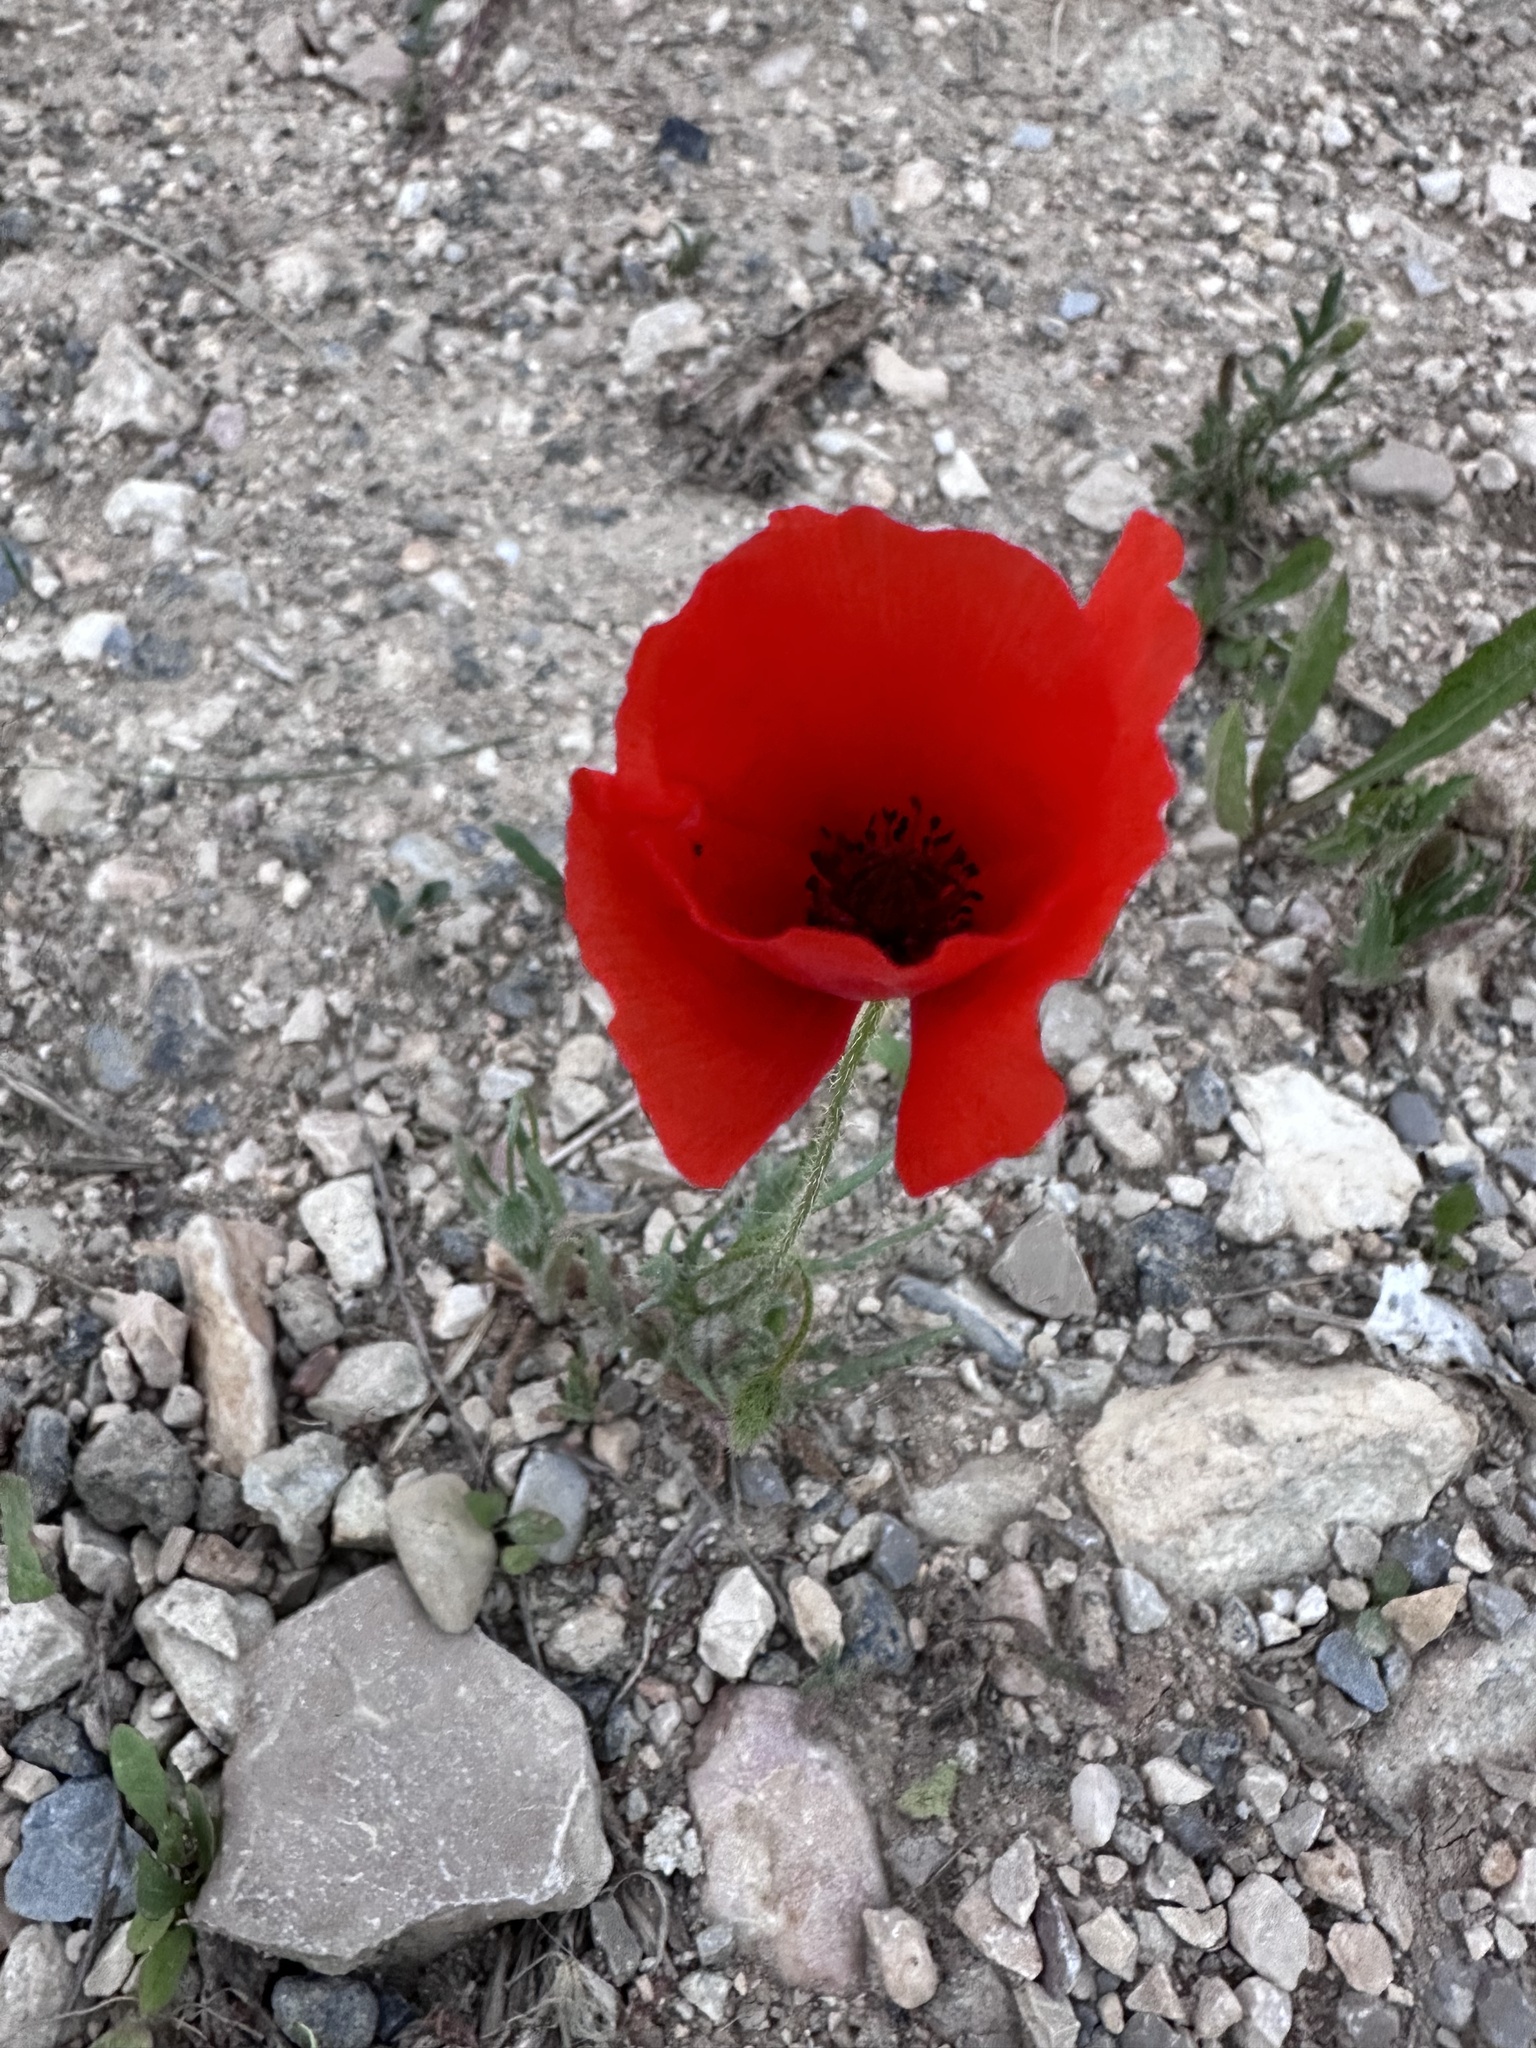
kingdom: Plantae
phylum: Tracheophyta
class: Magnoliopsida
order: Ranunculales
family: Papaveraceae
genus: Papaver
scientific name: Papaver rhoeas
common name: Corn poppy
